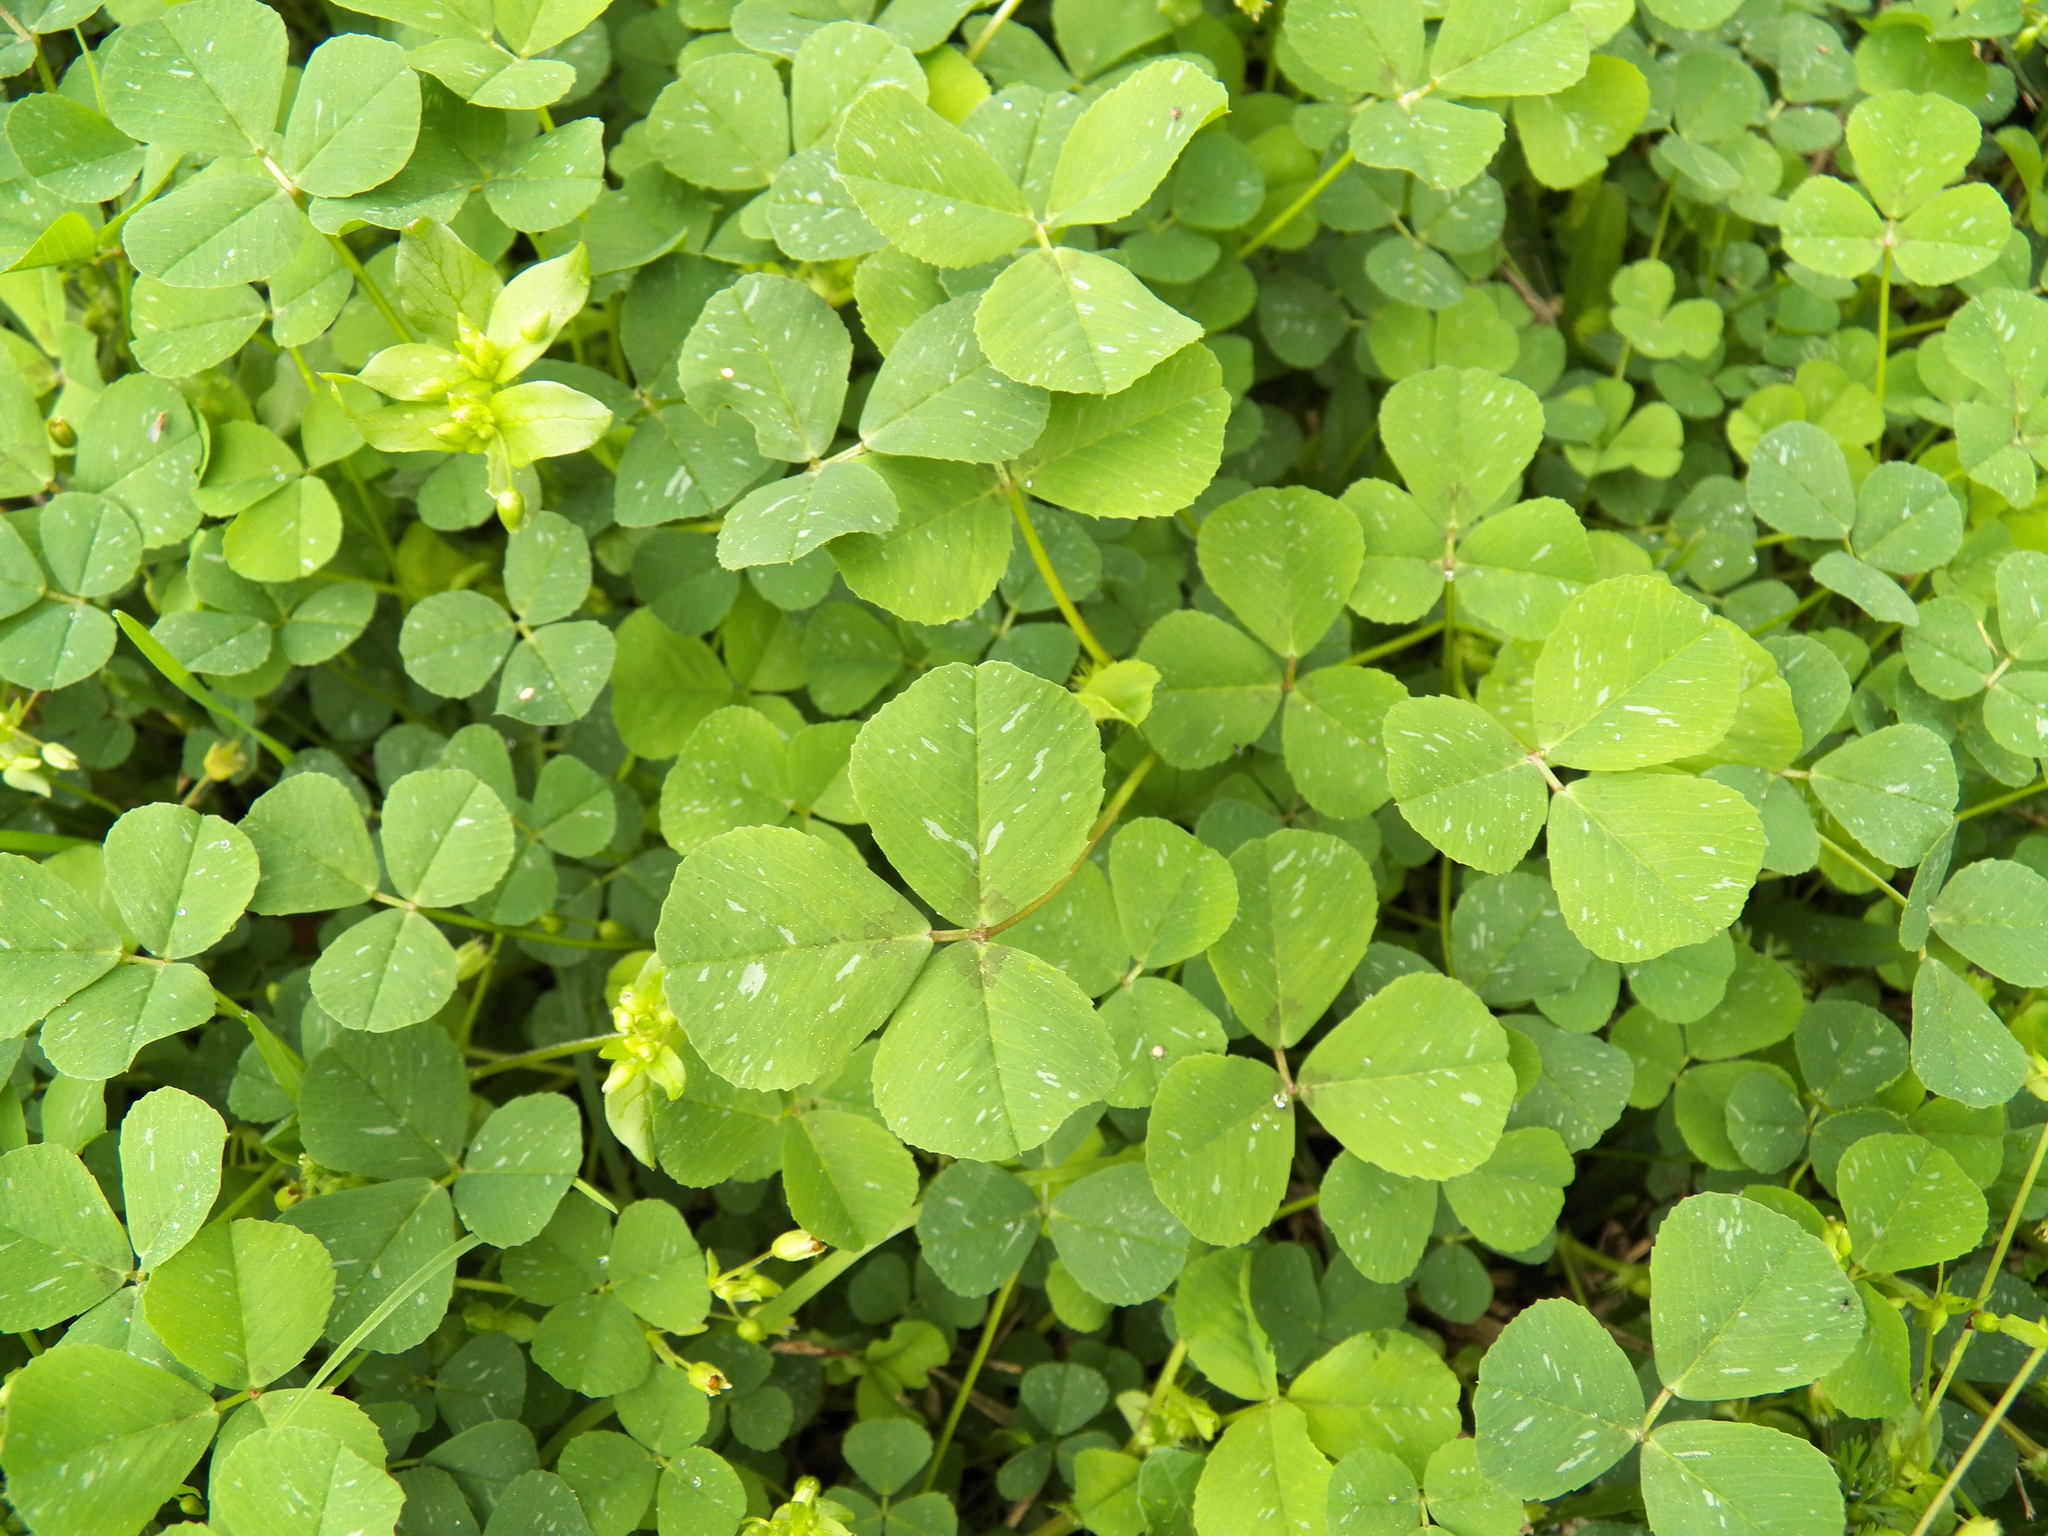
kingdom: Plantae
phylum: Tracheophyta
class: Magnoliopsida
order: Fabales
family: Fabaceae
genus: Medicago
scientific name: Medicago polymorpha
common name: Burclover
